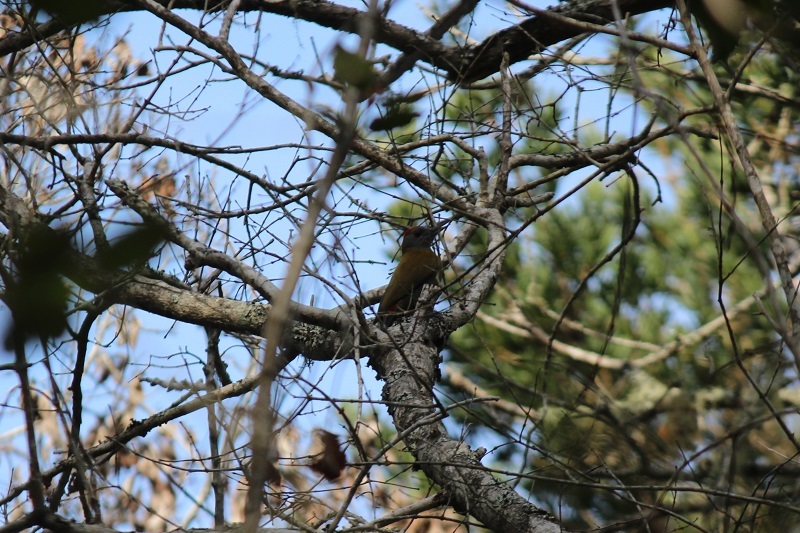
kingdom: Animalia
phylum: Chordata
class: Aves
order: Piciformes
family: Picidae
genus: Dendropicos
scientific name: Dendropicos griseocephalus
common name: Olive woodpecker
